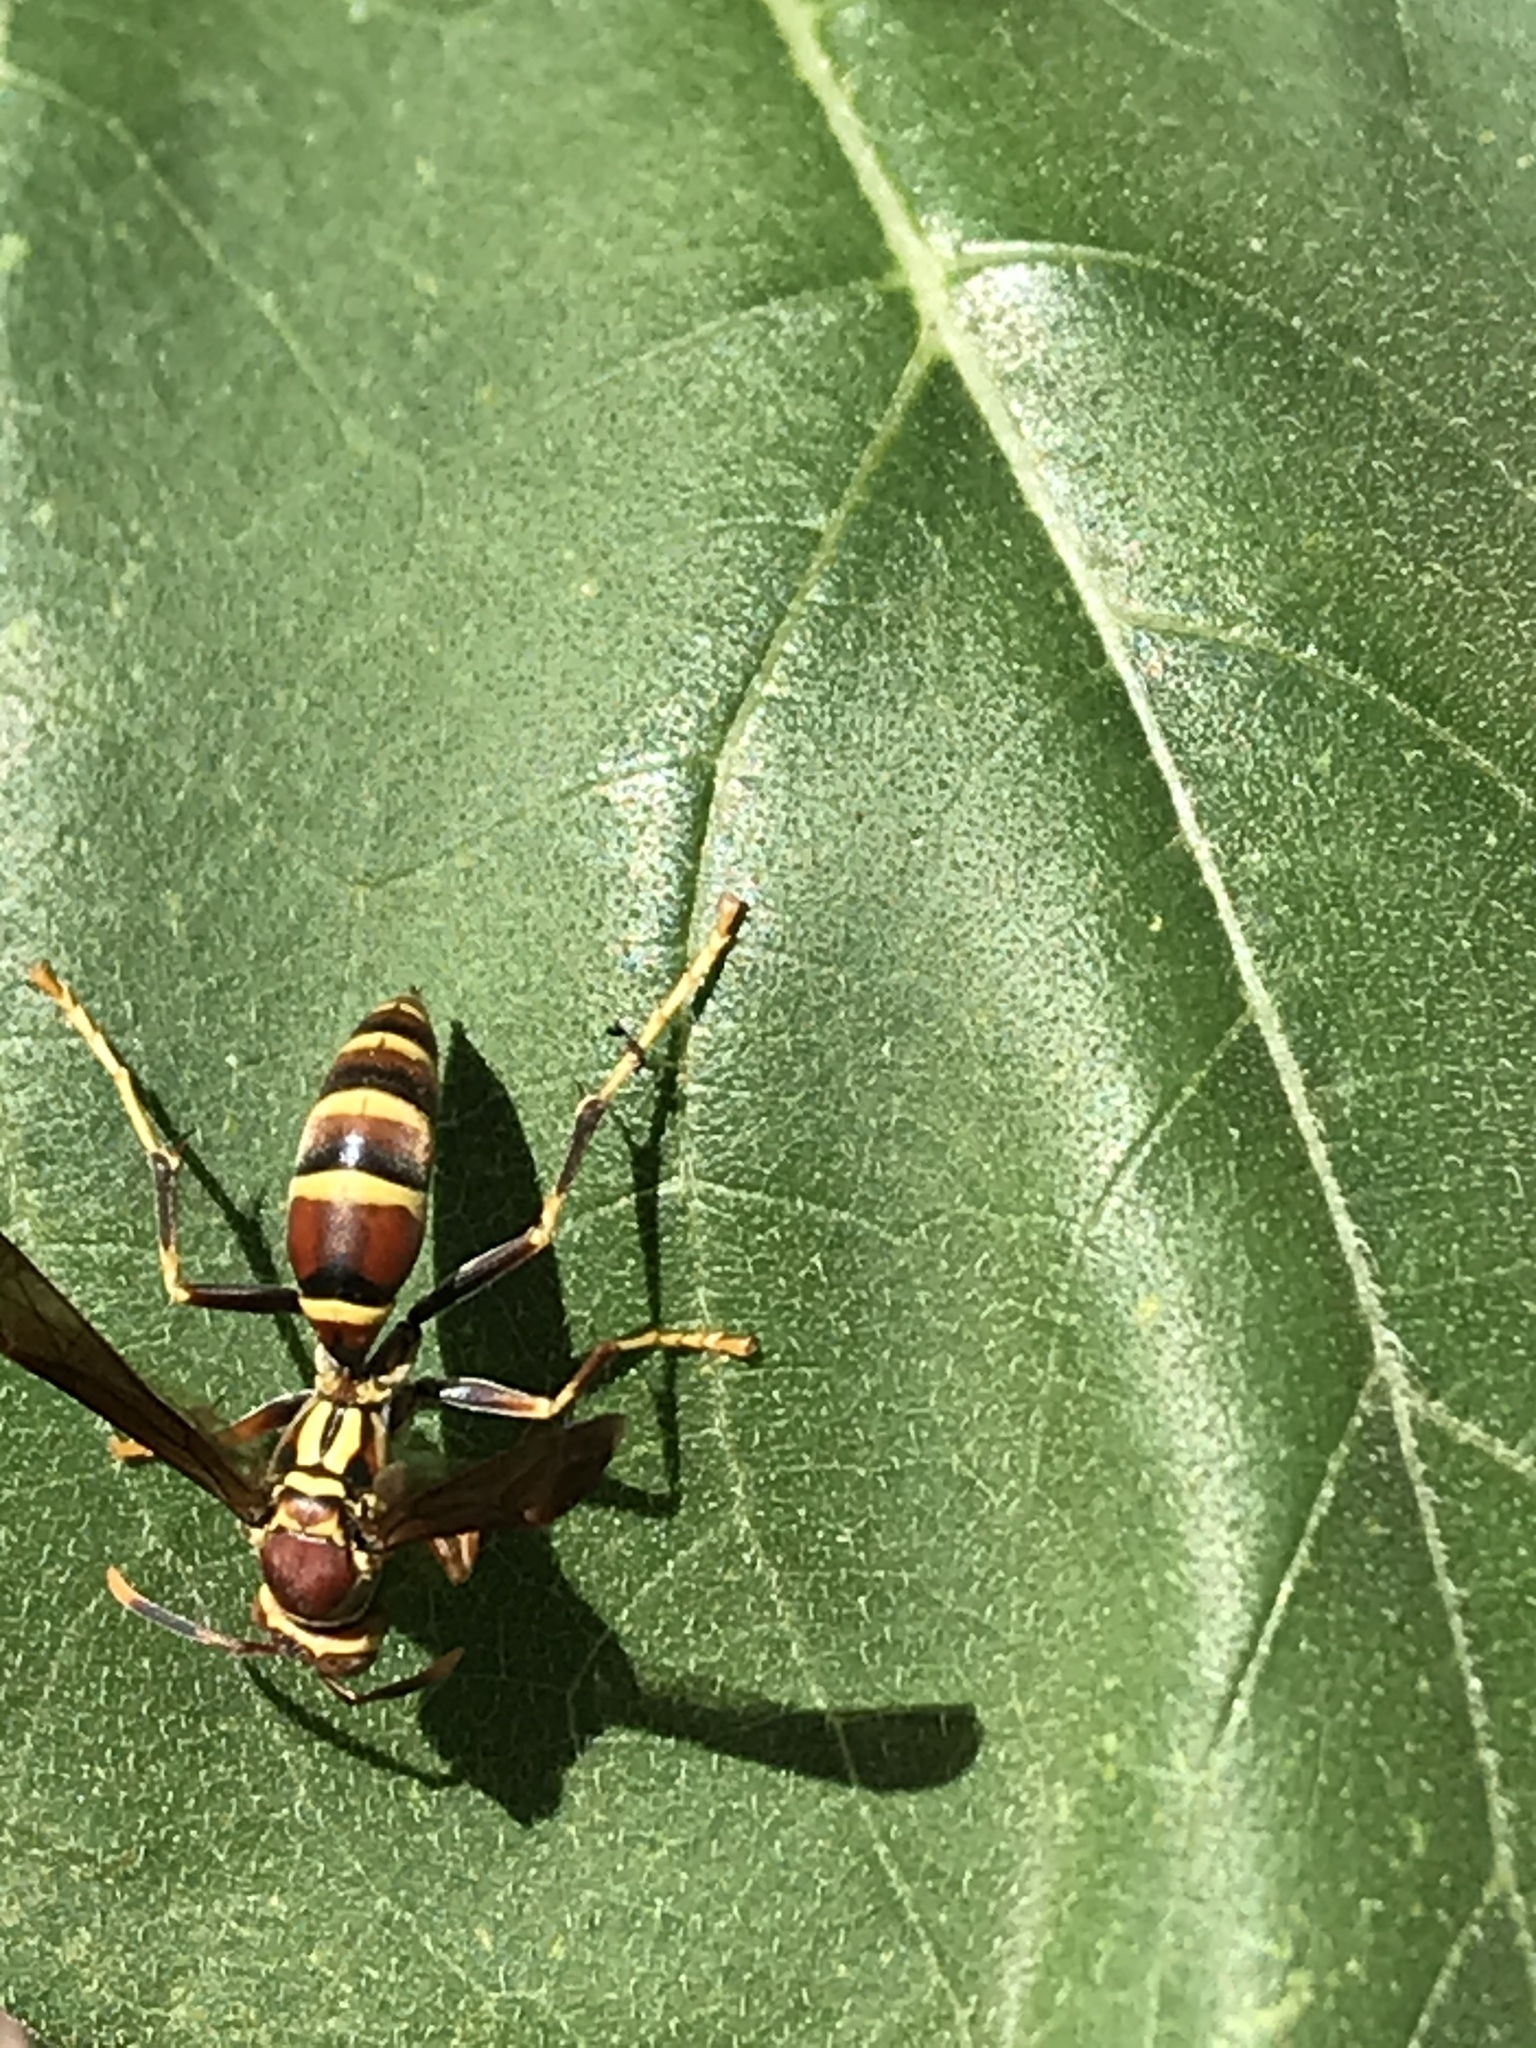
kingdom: Animalia
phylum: Arthropoda
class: Insecta
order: Hymenoptera
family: Eumenidae
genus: Polistes
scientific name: Polistes exclamans
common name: Paper wasp
